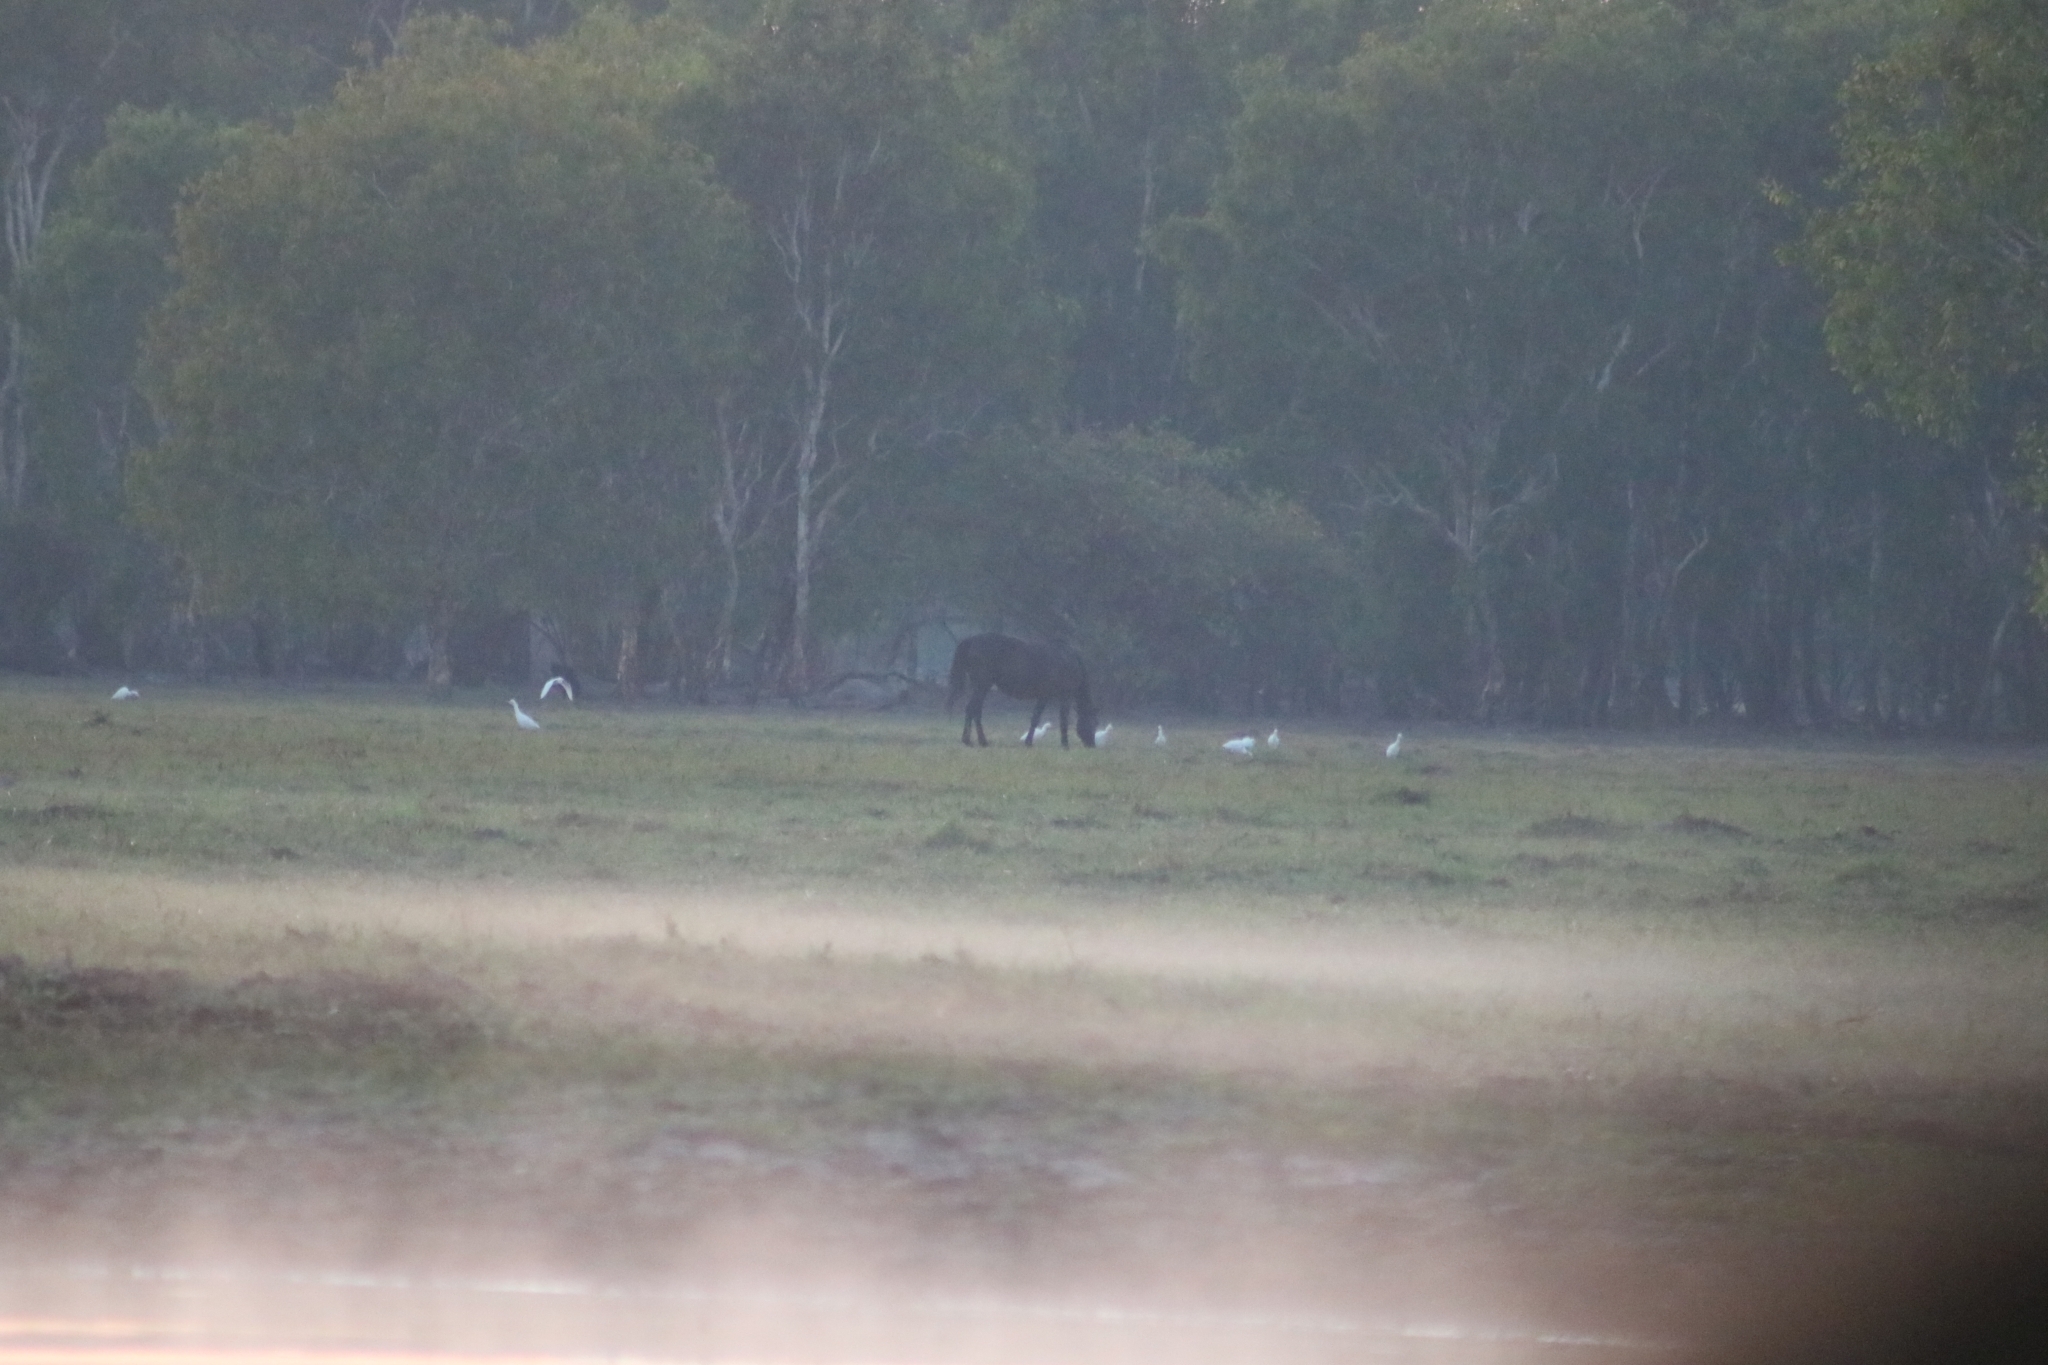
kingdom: Animalia
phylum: Chordata
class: Mammalia
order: Perissodactyla
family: Equidae
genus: Equus
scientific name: Equus caballus
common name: Horse
